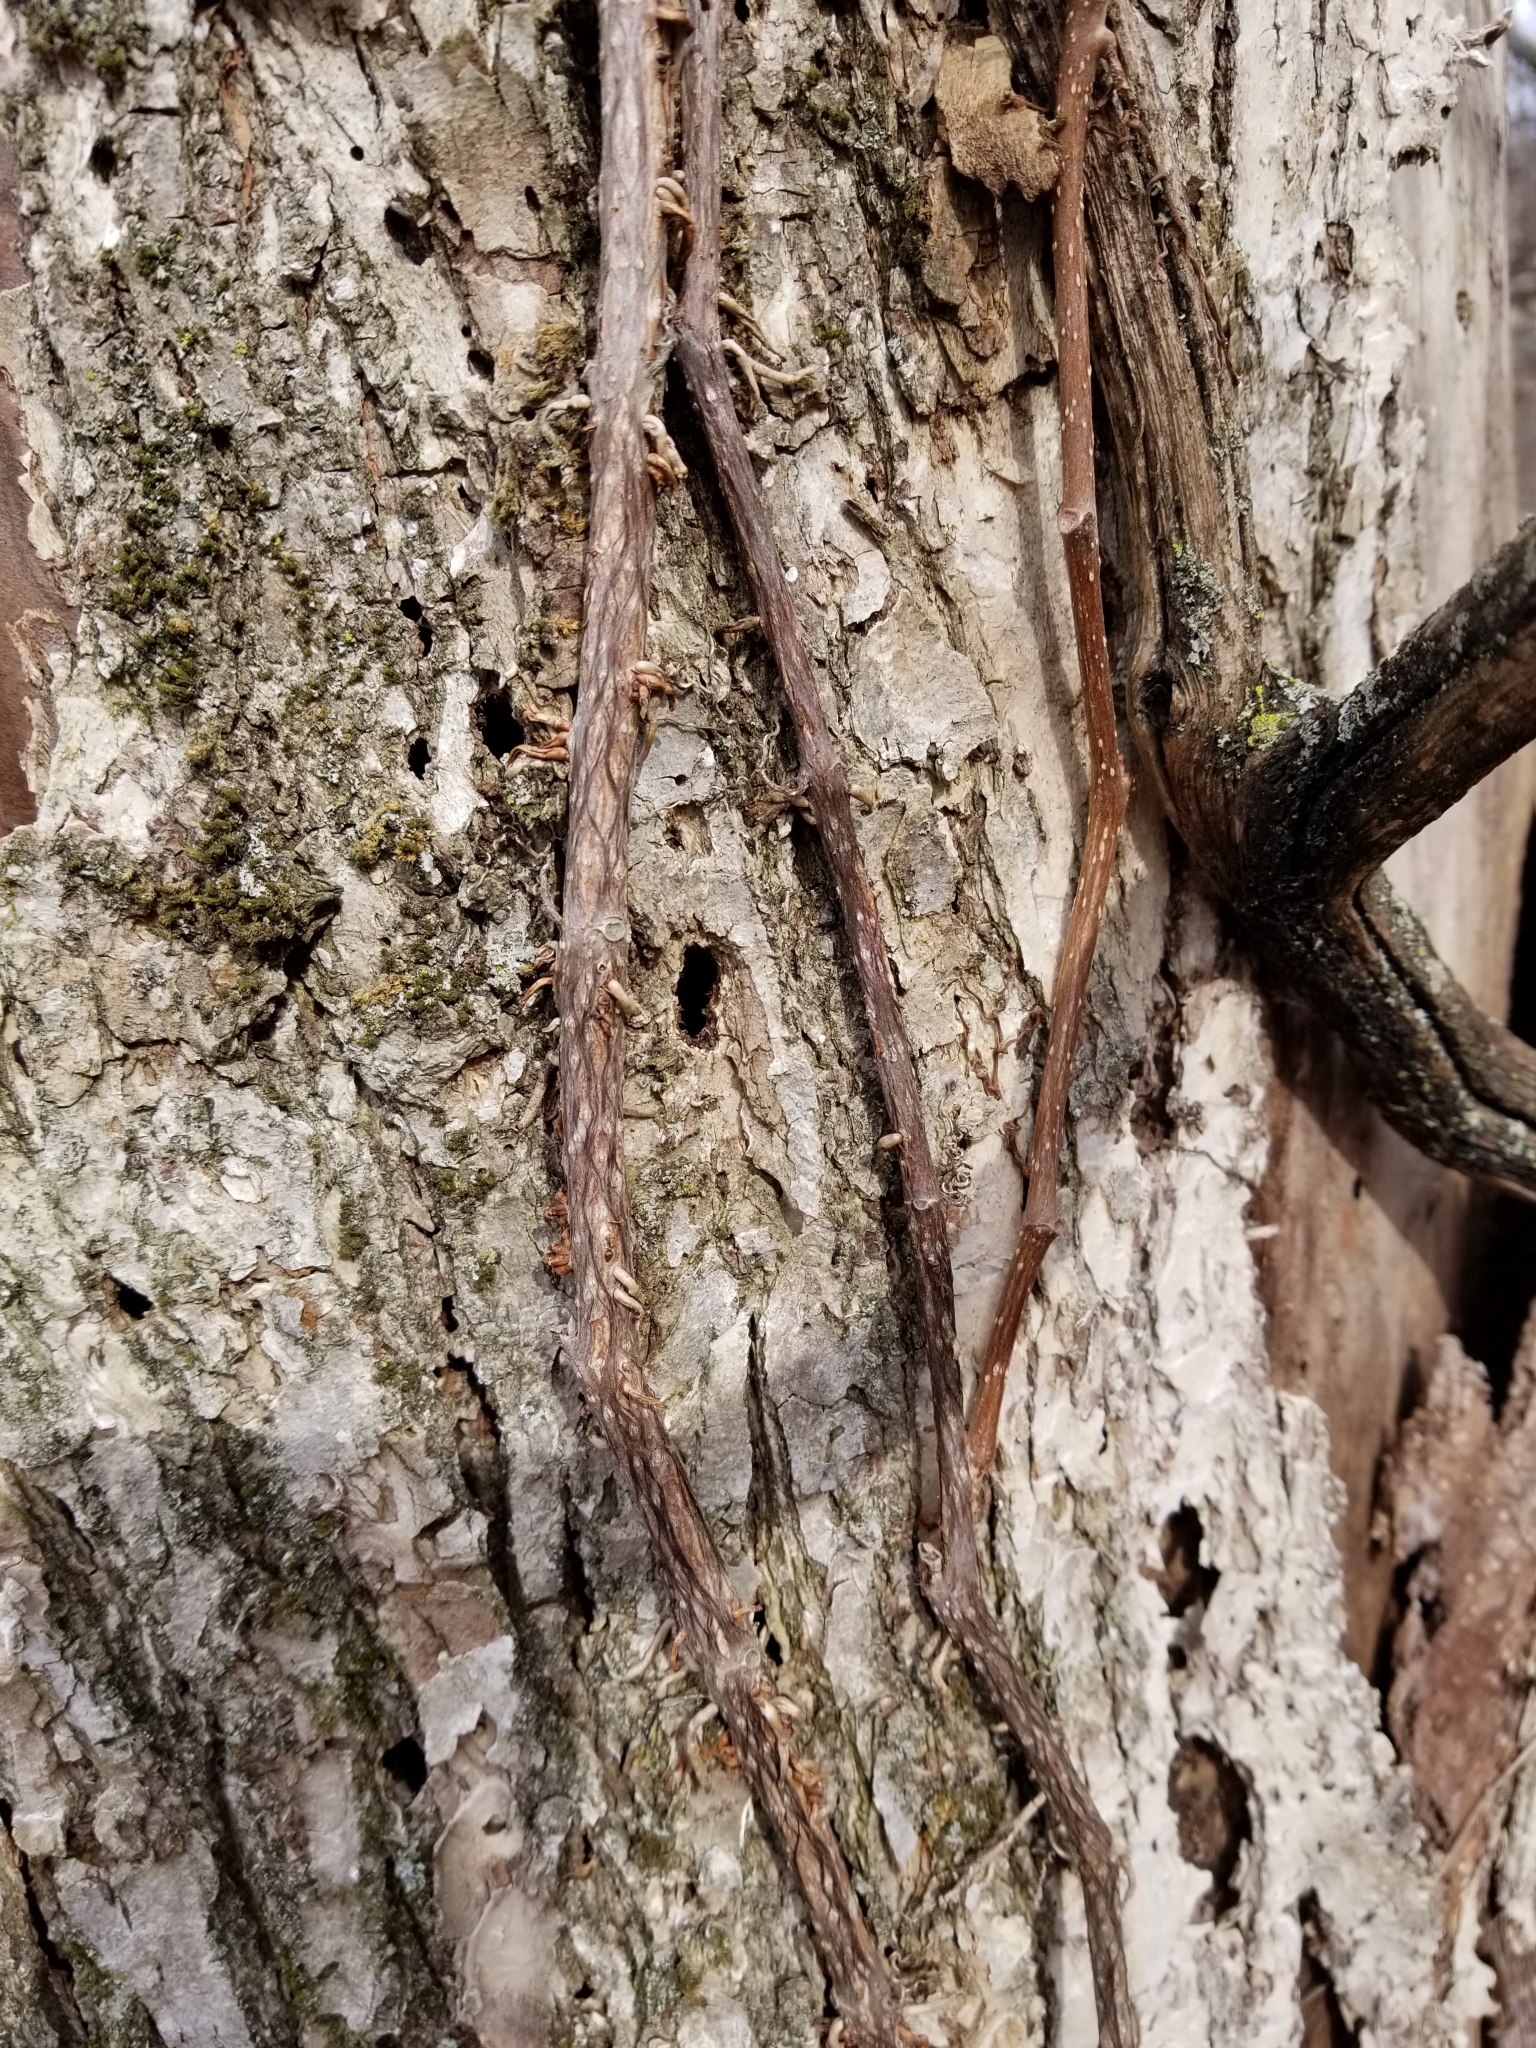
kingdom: Plantae
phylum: Tracheophyta
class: Magnoliopsida
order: Vitales
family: Vitaceae
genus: Vitis
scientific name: Vitis riparia
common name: Frost grape
